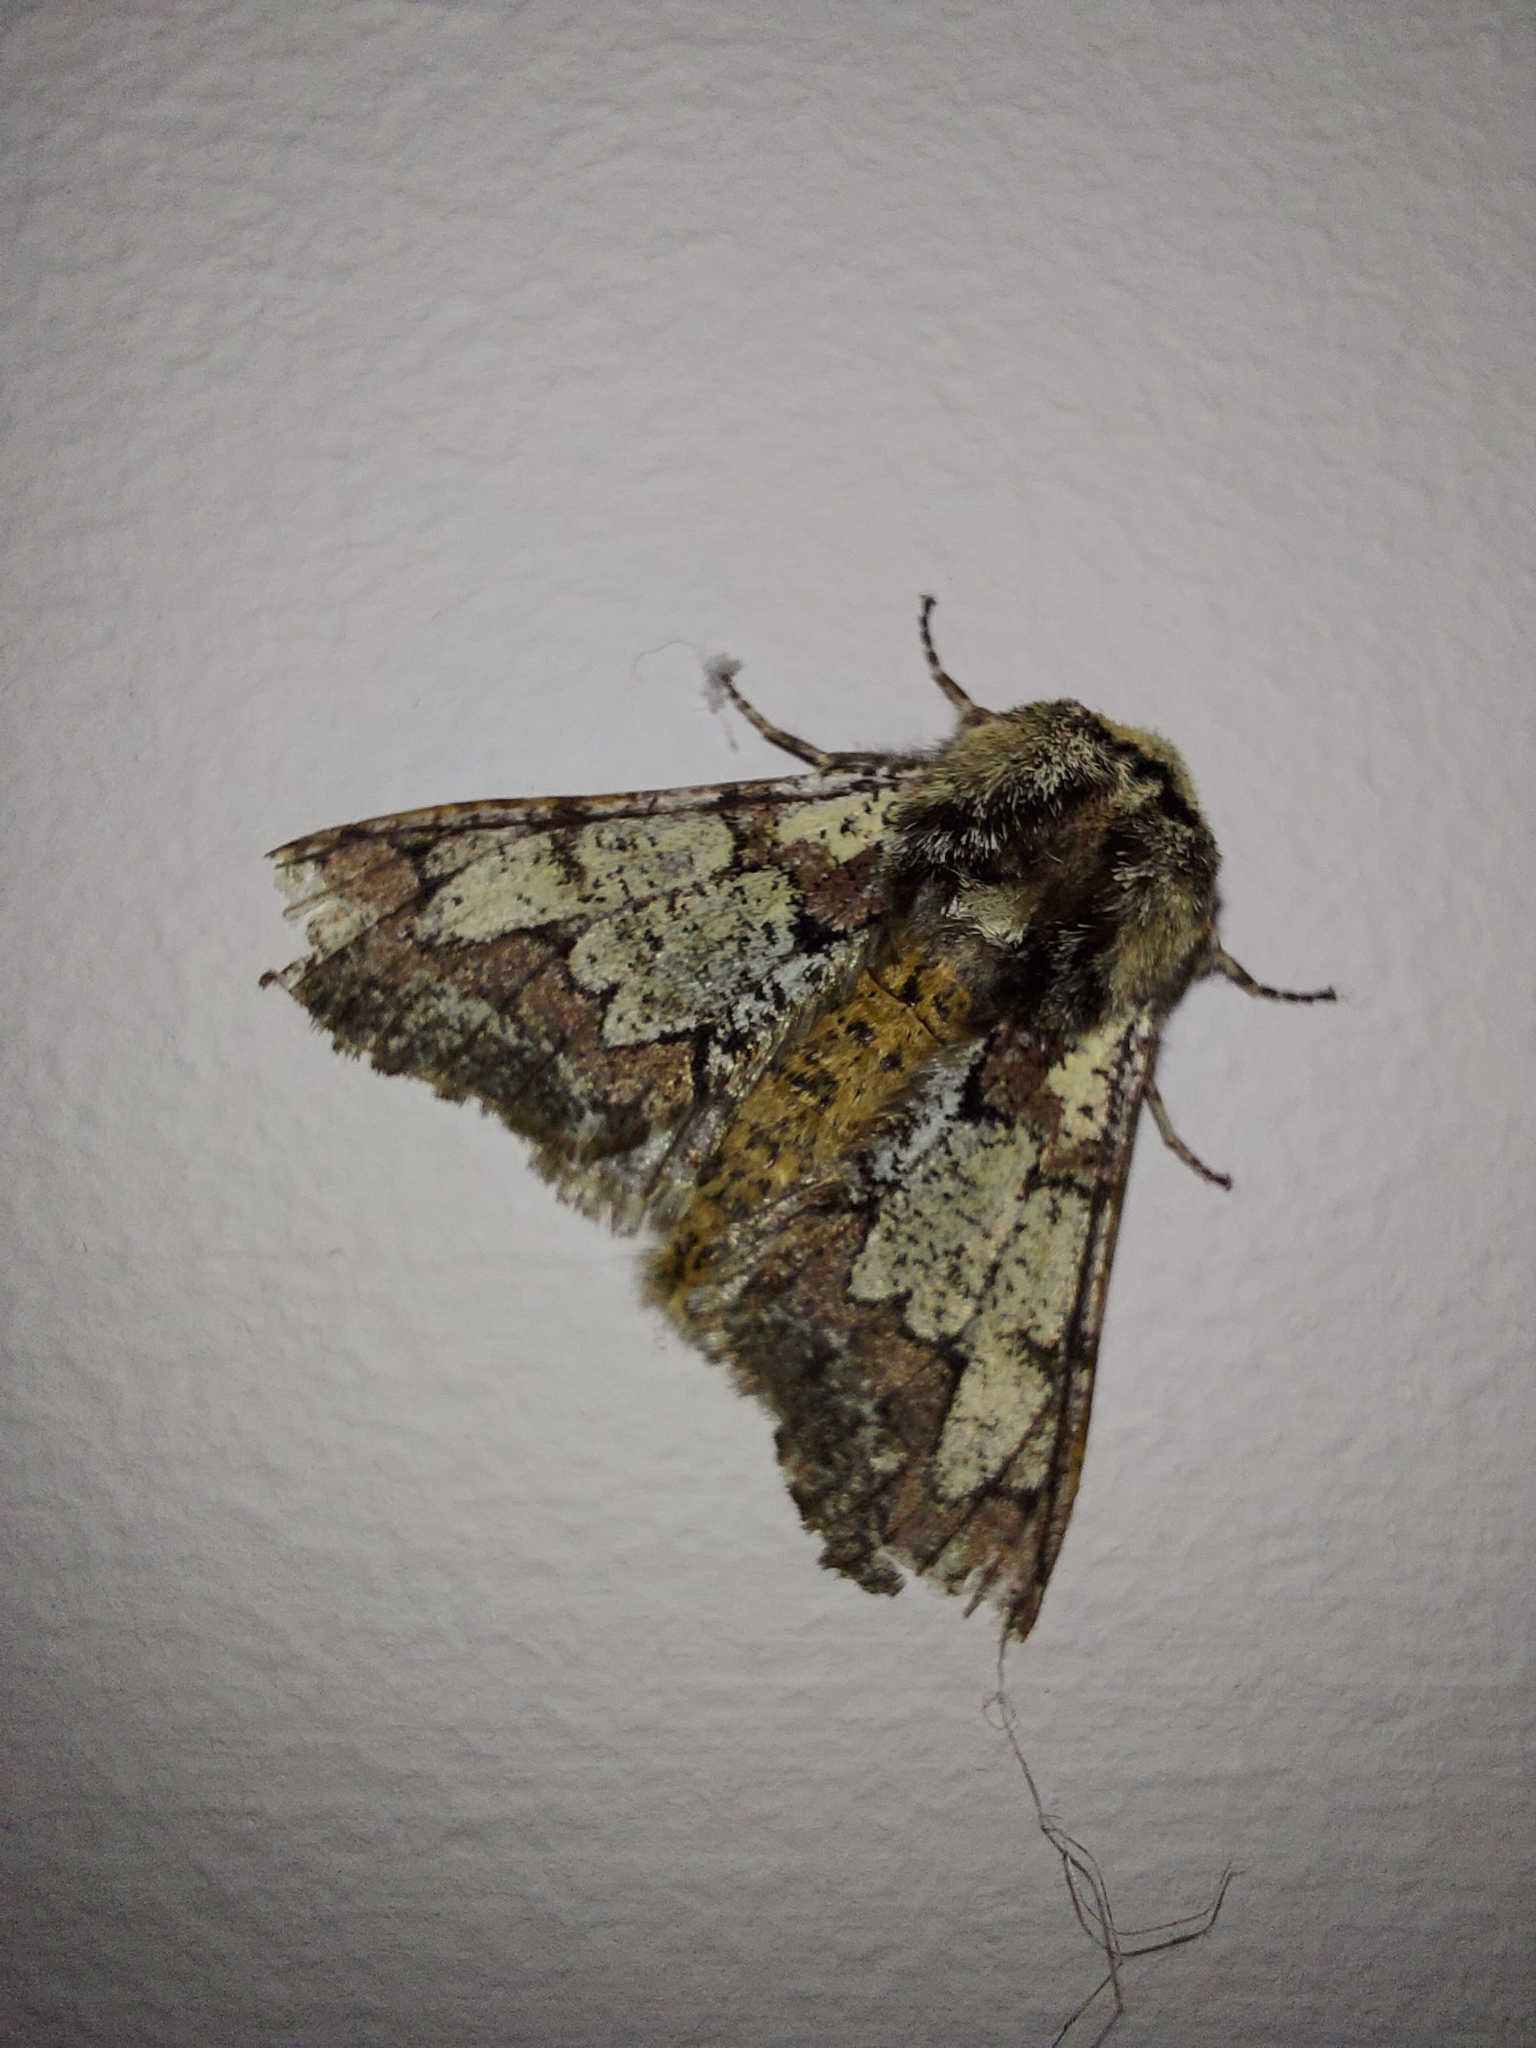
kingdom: Animalia
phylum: Arthropoda
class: Insecta
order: Lepidoptera
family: Geometridae
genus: Biston
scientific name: Biston strataria
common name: Oak beauty
